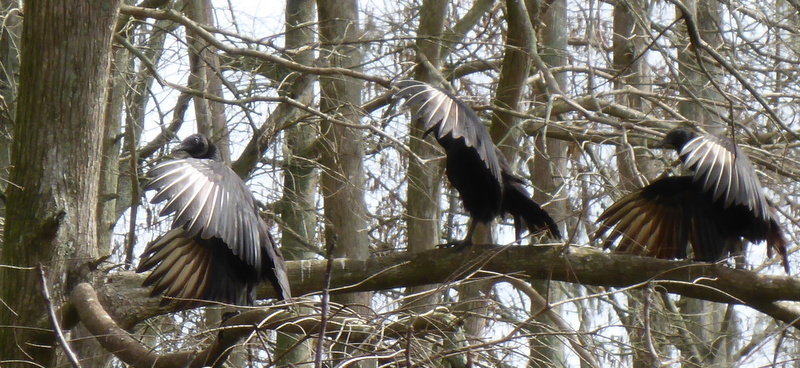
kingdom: Animalia
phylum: Chordata
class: Aves
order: Accipitriformes
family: Cathartidae
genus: Coragyps
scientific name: Coragyps atratus
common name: Black vulture
